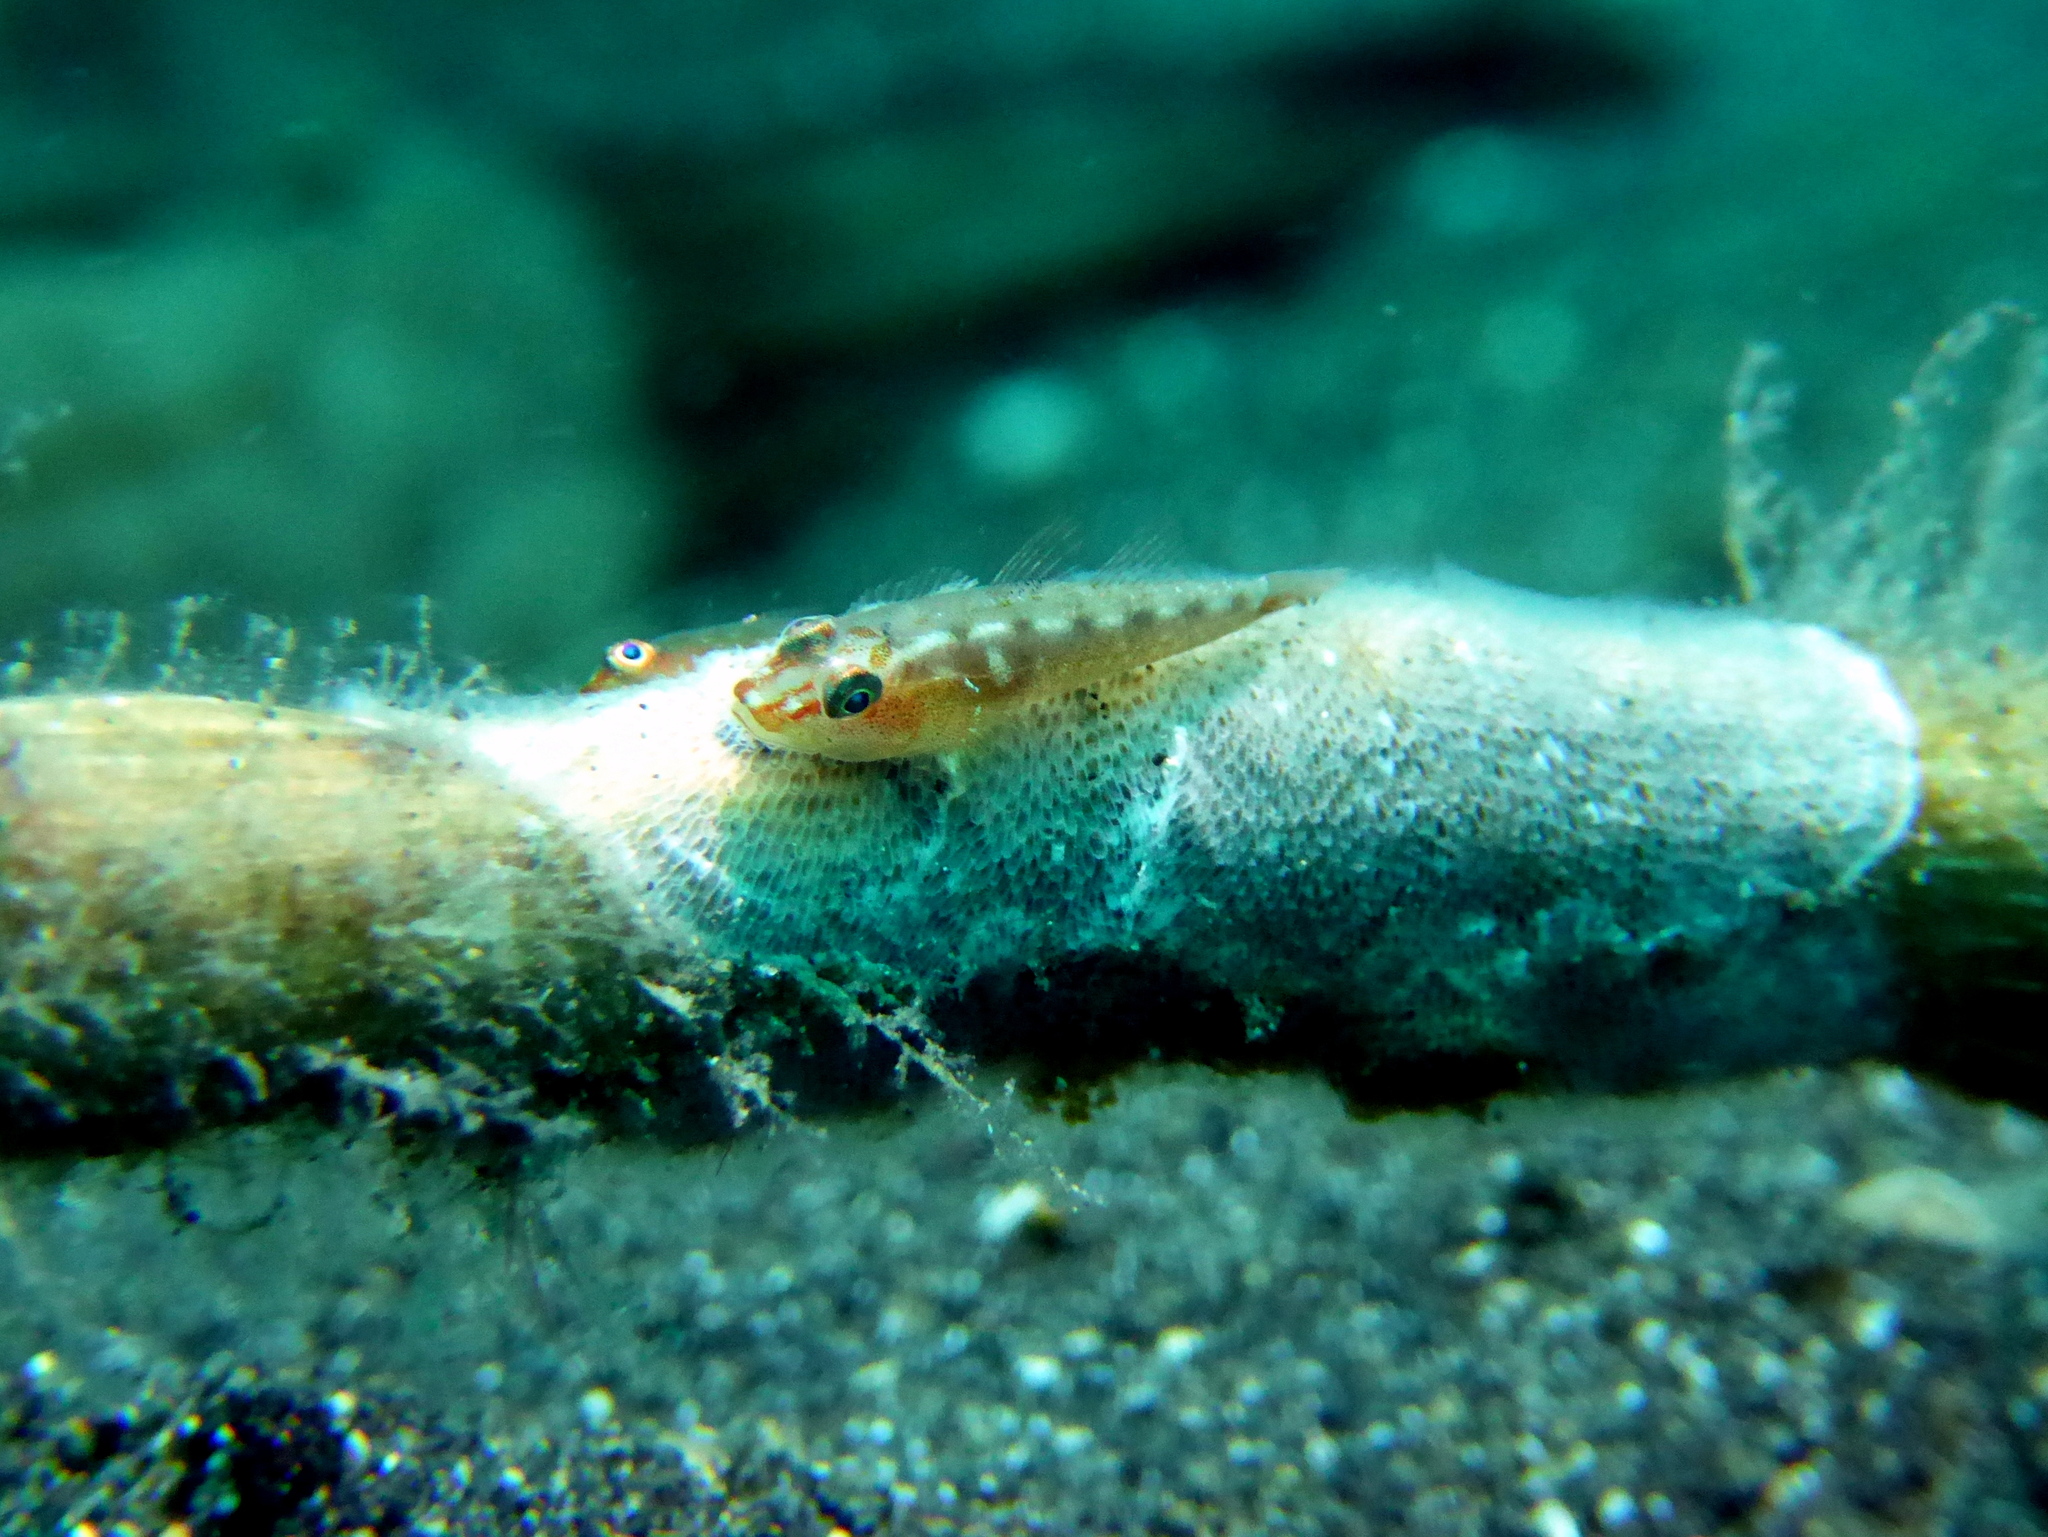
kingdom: Animalia
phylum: Chordata
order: Perciformes
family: Gobiidae
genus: Pleurosicya
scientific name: Pleurosicya mossambica
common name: Common ghost goby
